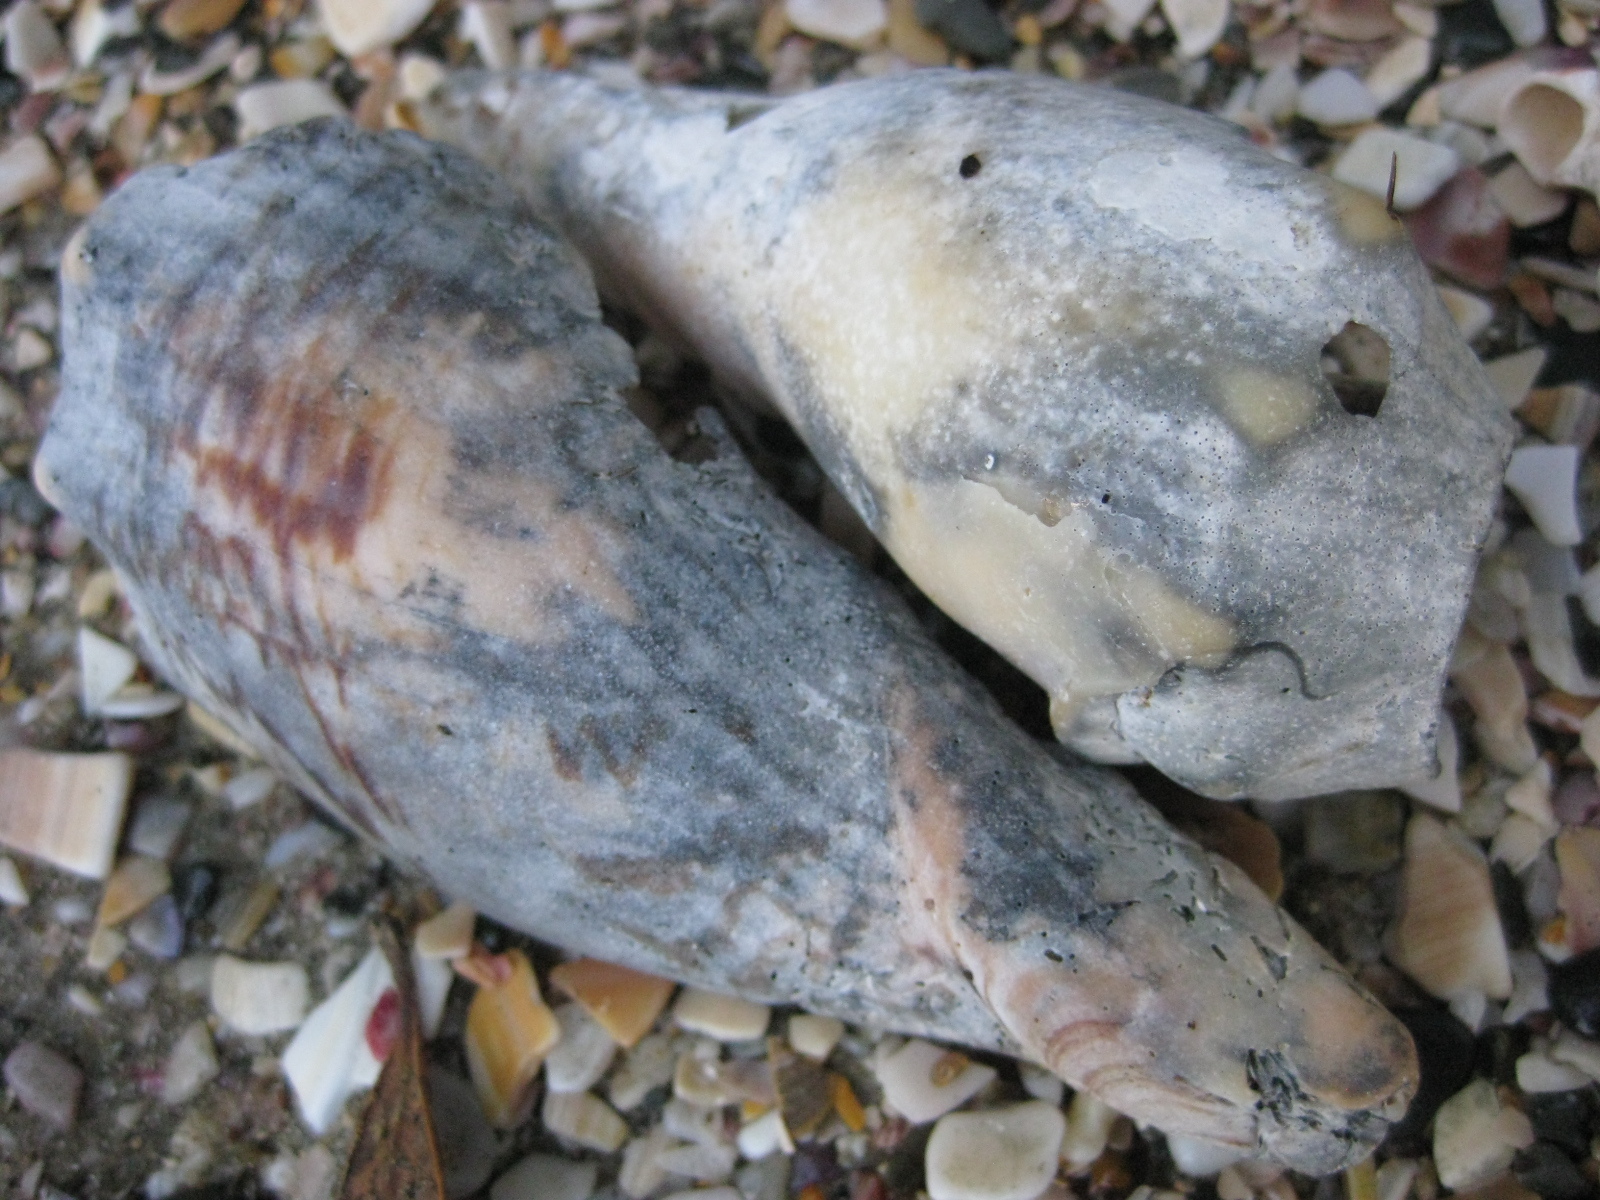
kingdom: Animalia
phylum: Mollusca
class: Gastropoda
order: Neogastropoda
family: Volutidae
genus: Alcithoe
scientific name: Alcithoe arabica
